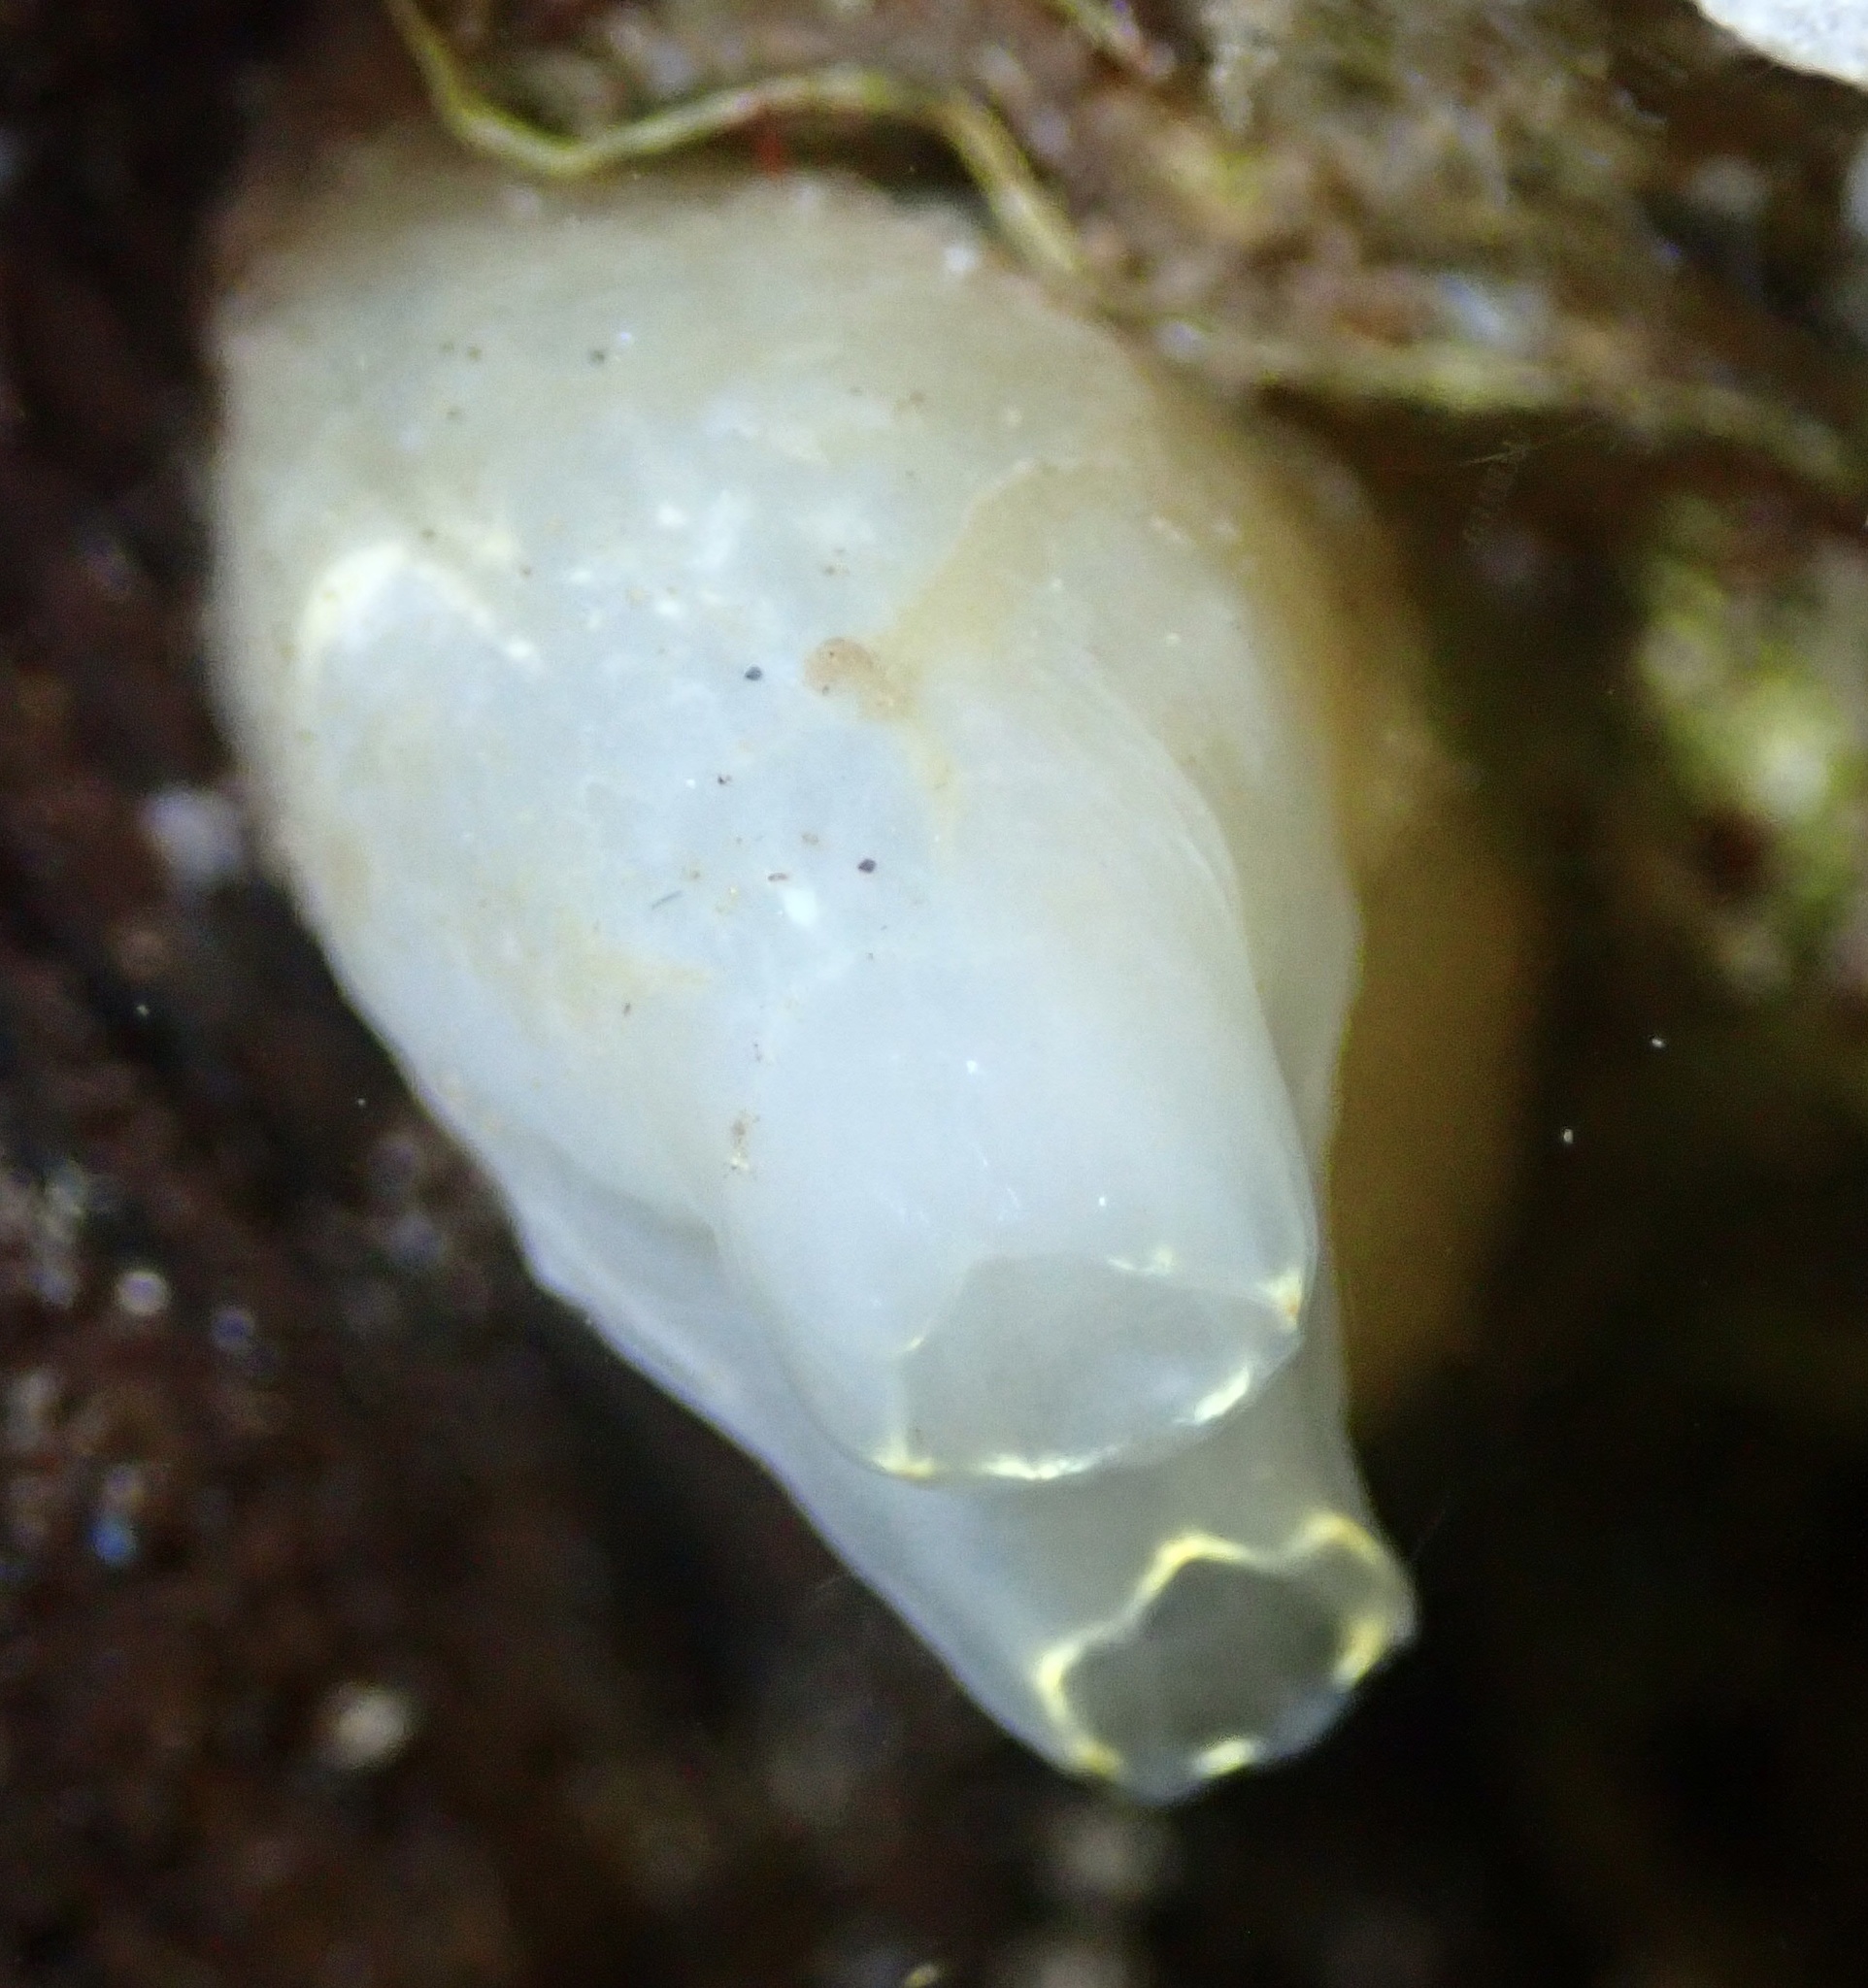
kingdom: Animalia
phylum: Chordata
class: Ascidiacea
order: Phlebobranchia
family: Cionidae
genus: Ciona
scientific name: Ciona intestinalis
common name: Vase tunicate
